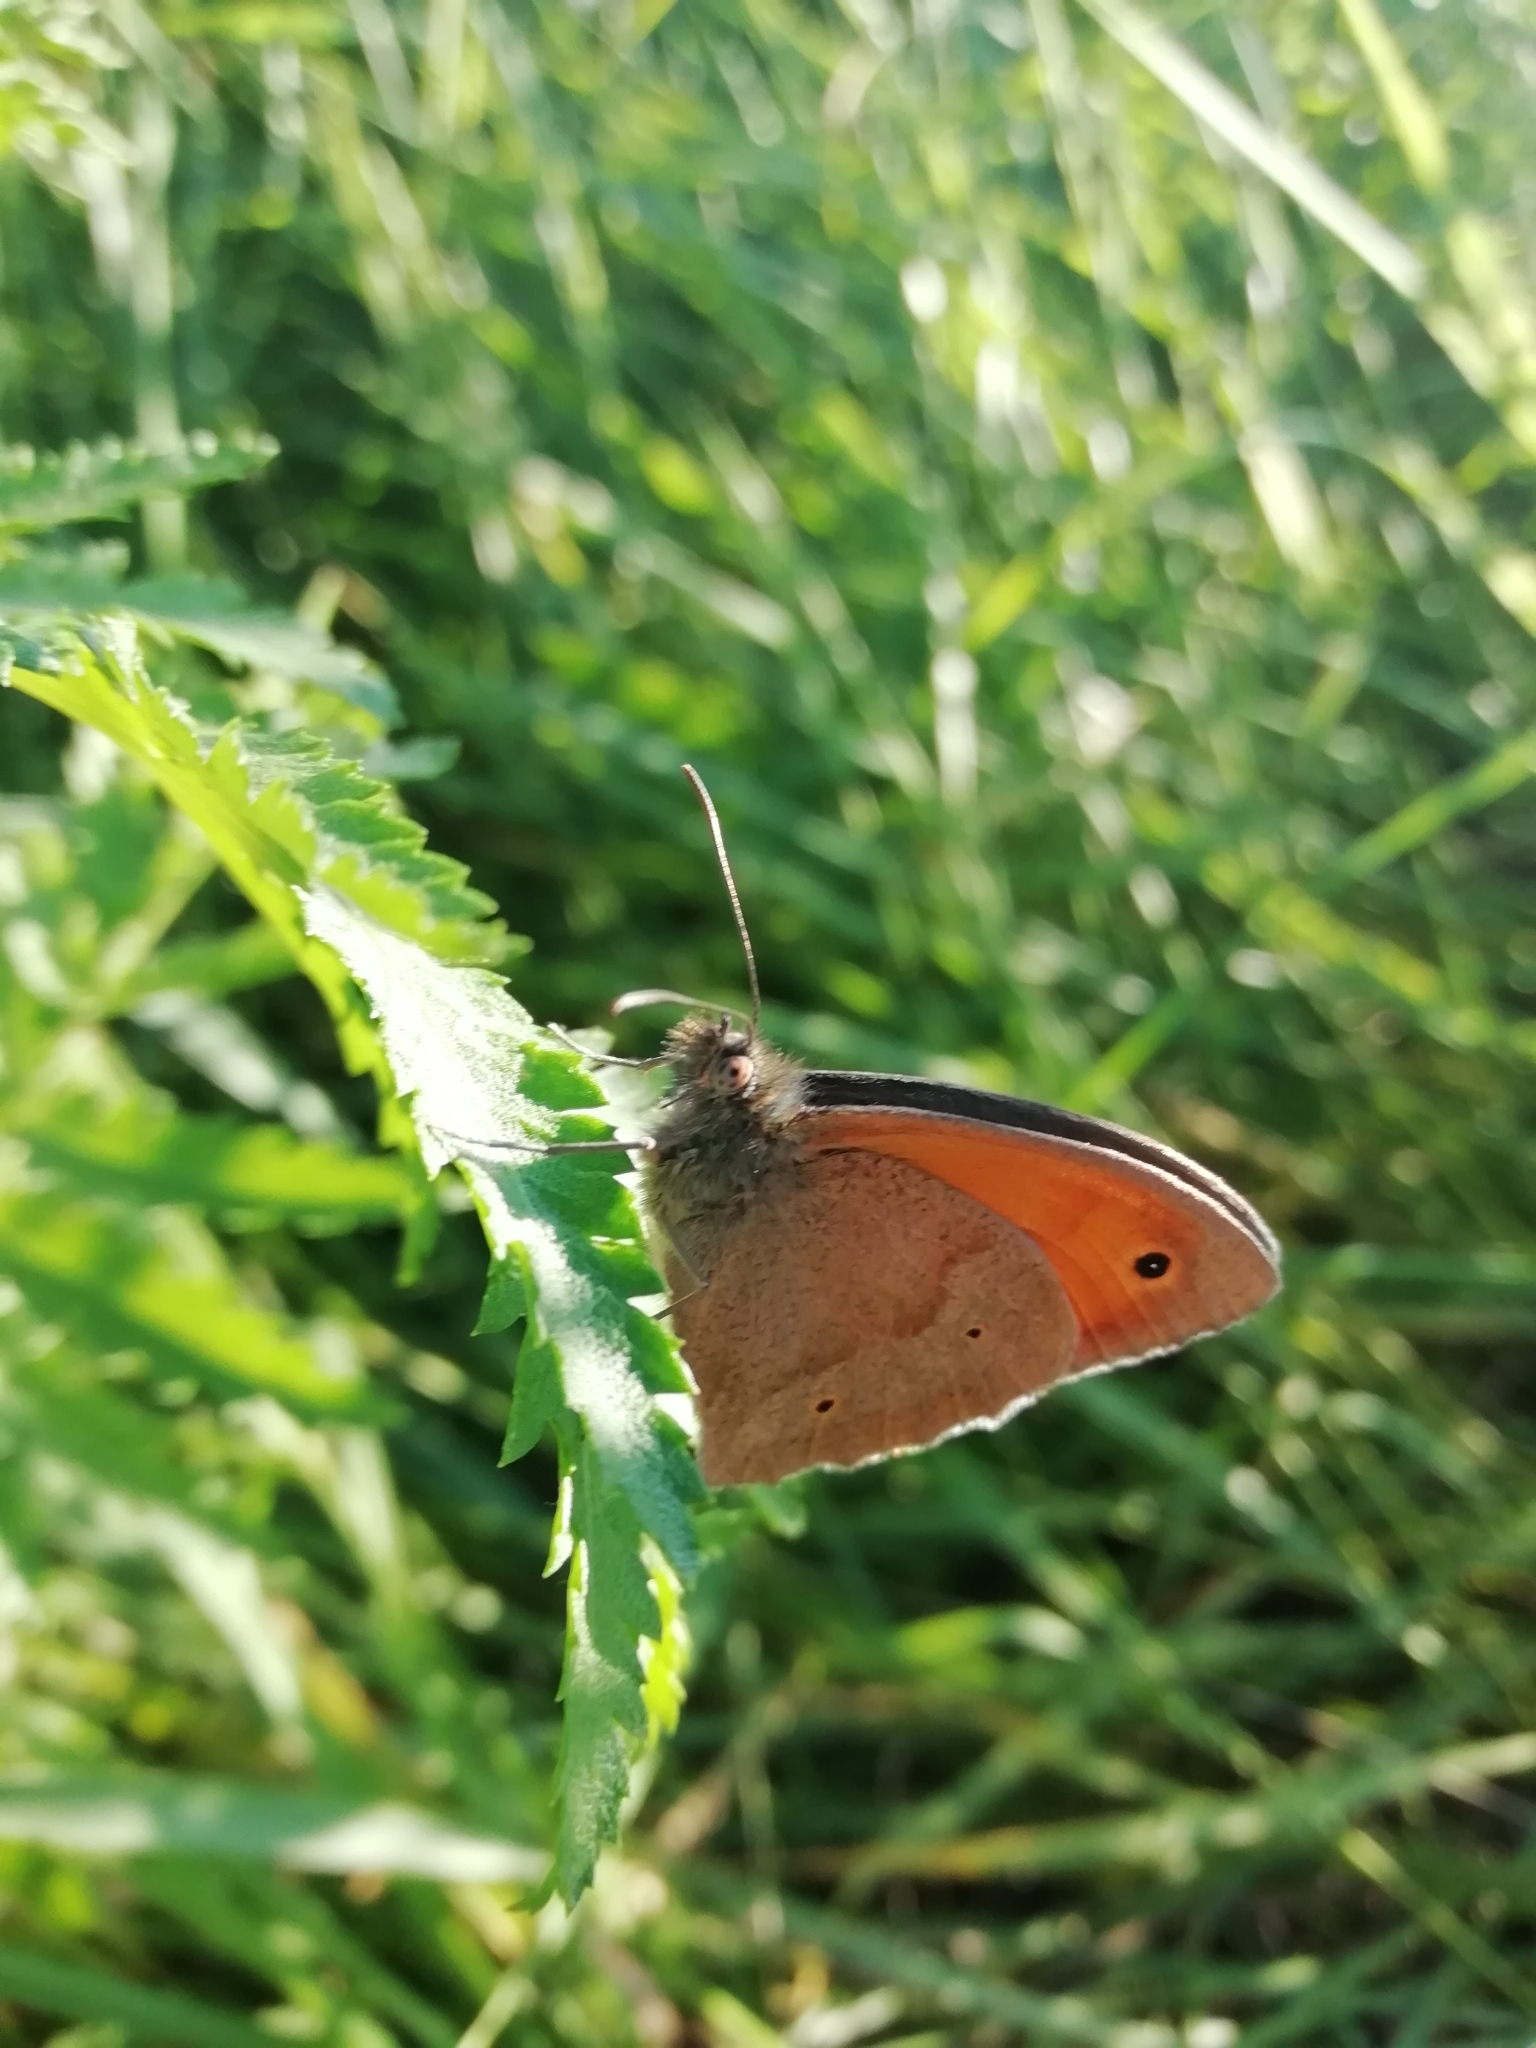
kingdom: Animalia
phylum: Arthropoda
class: Insecta
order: Lepidoptera
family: Nymphalidae
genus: Maniola
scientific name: Maniola jurtina
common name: Meadow brown
